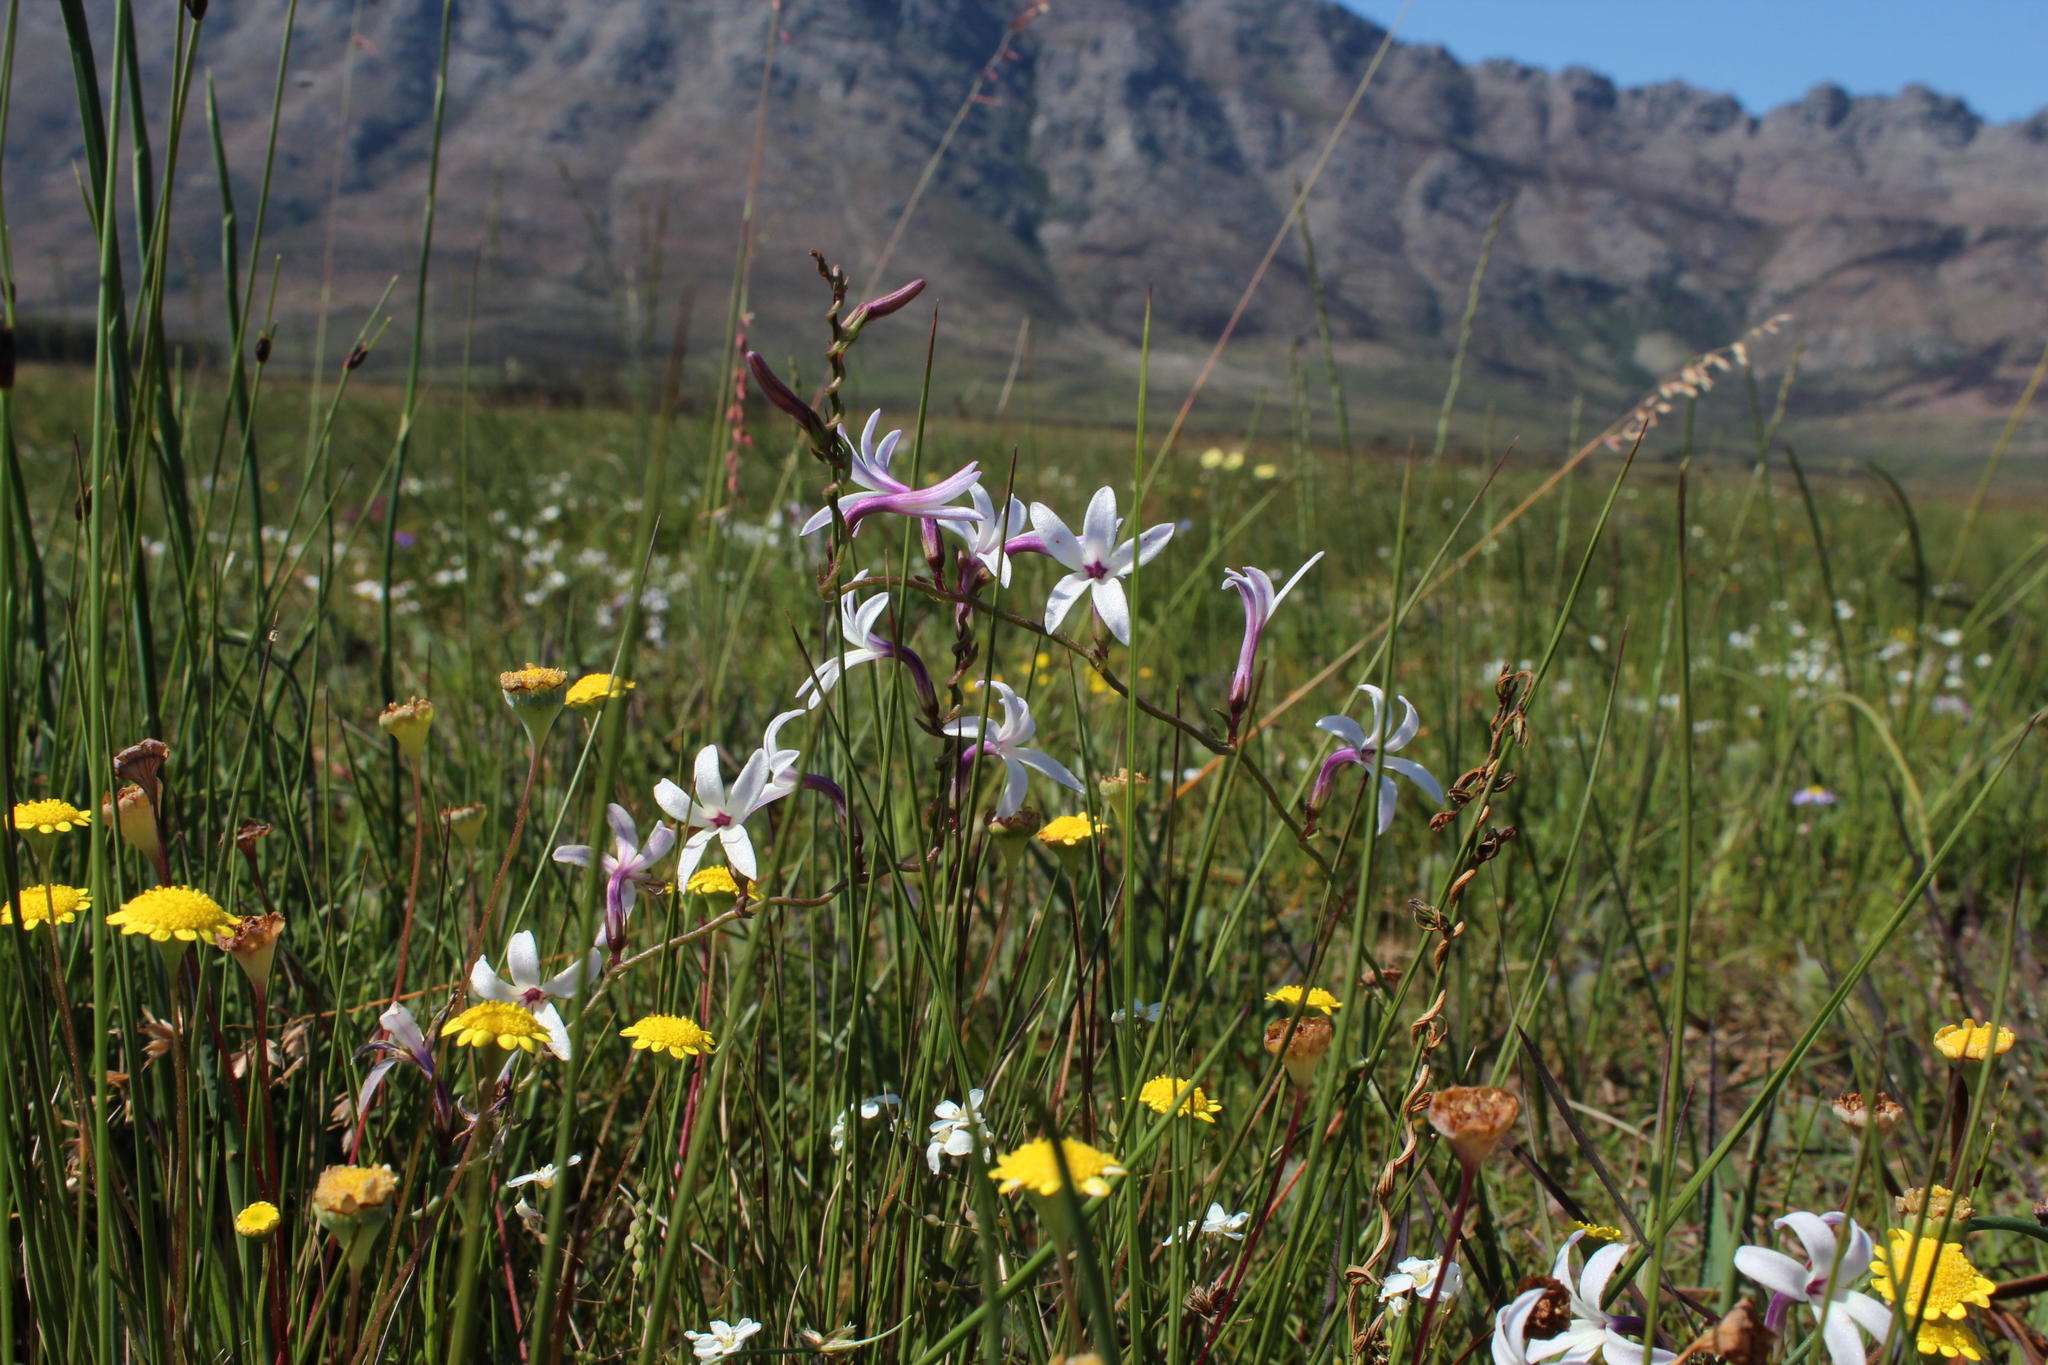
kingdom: Plantae
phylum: Tracheophyta
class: Magnoliopsida
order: Asterales
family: Campanulaceae
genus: Cyphia
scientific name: Cyphia zeyheriana
